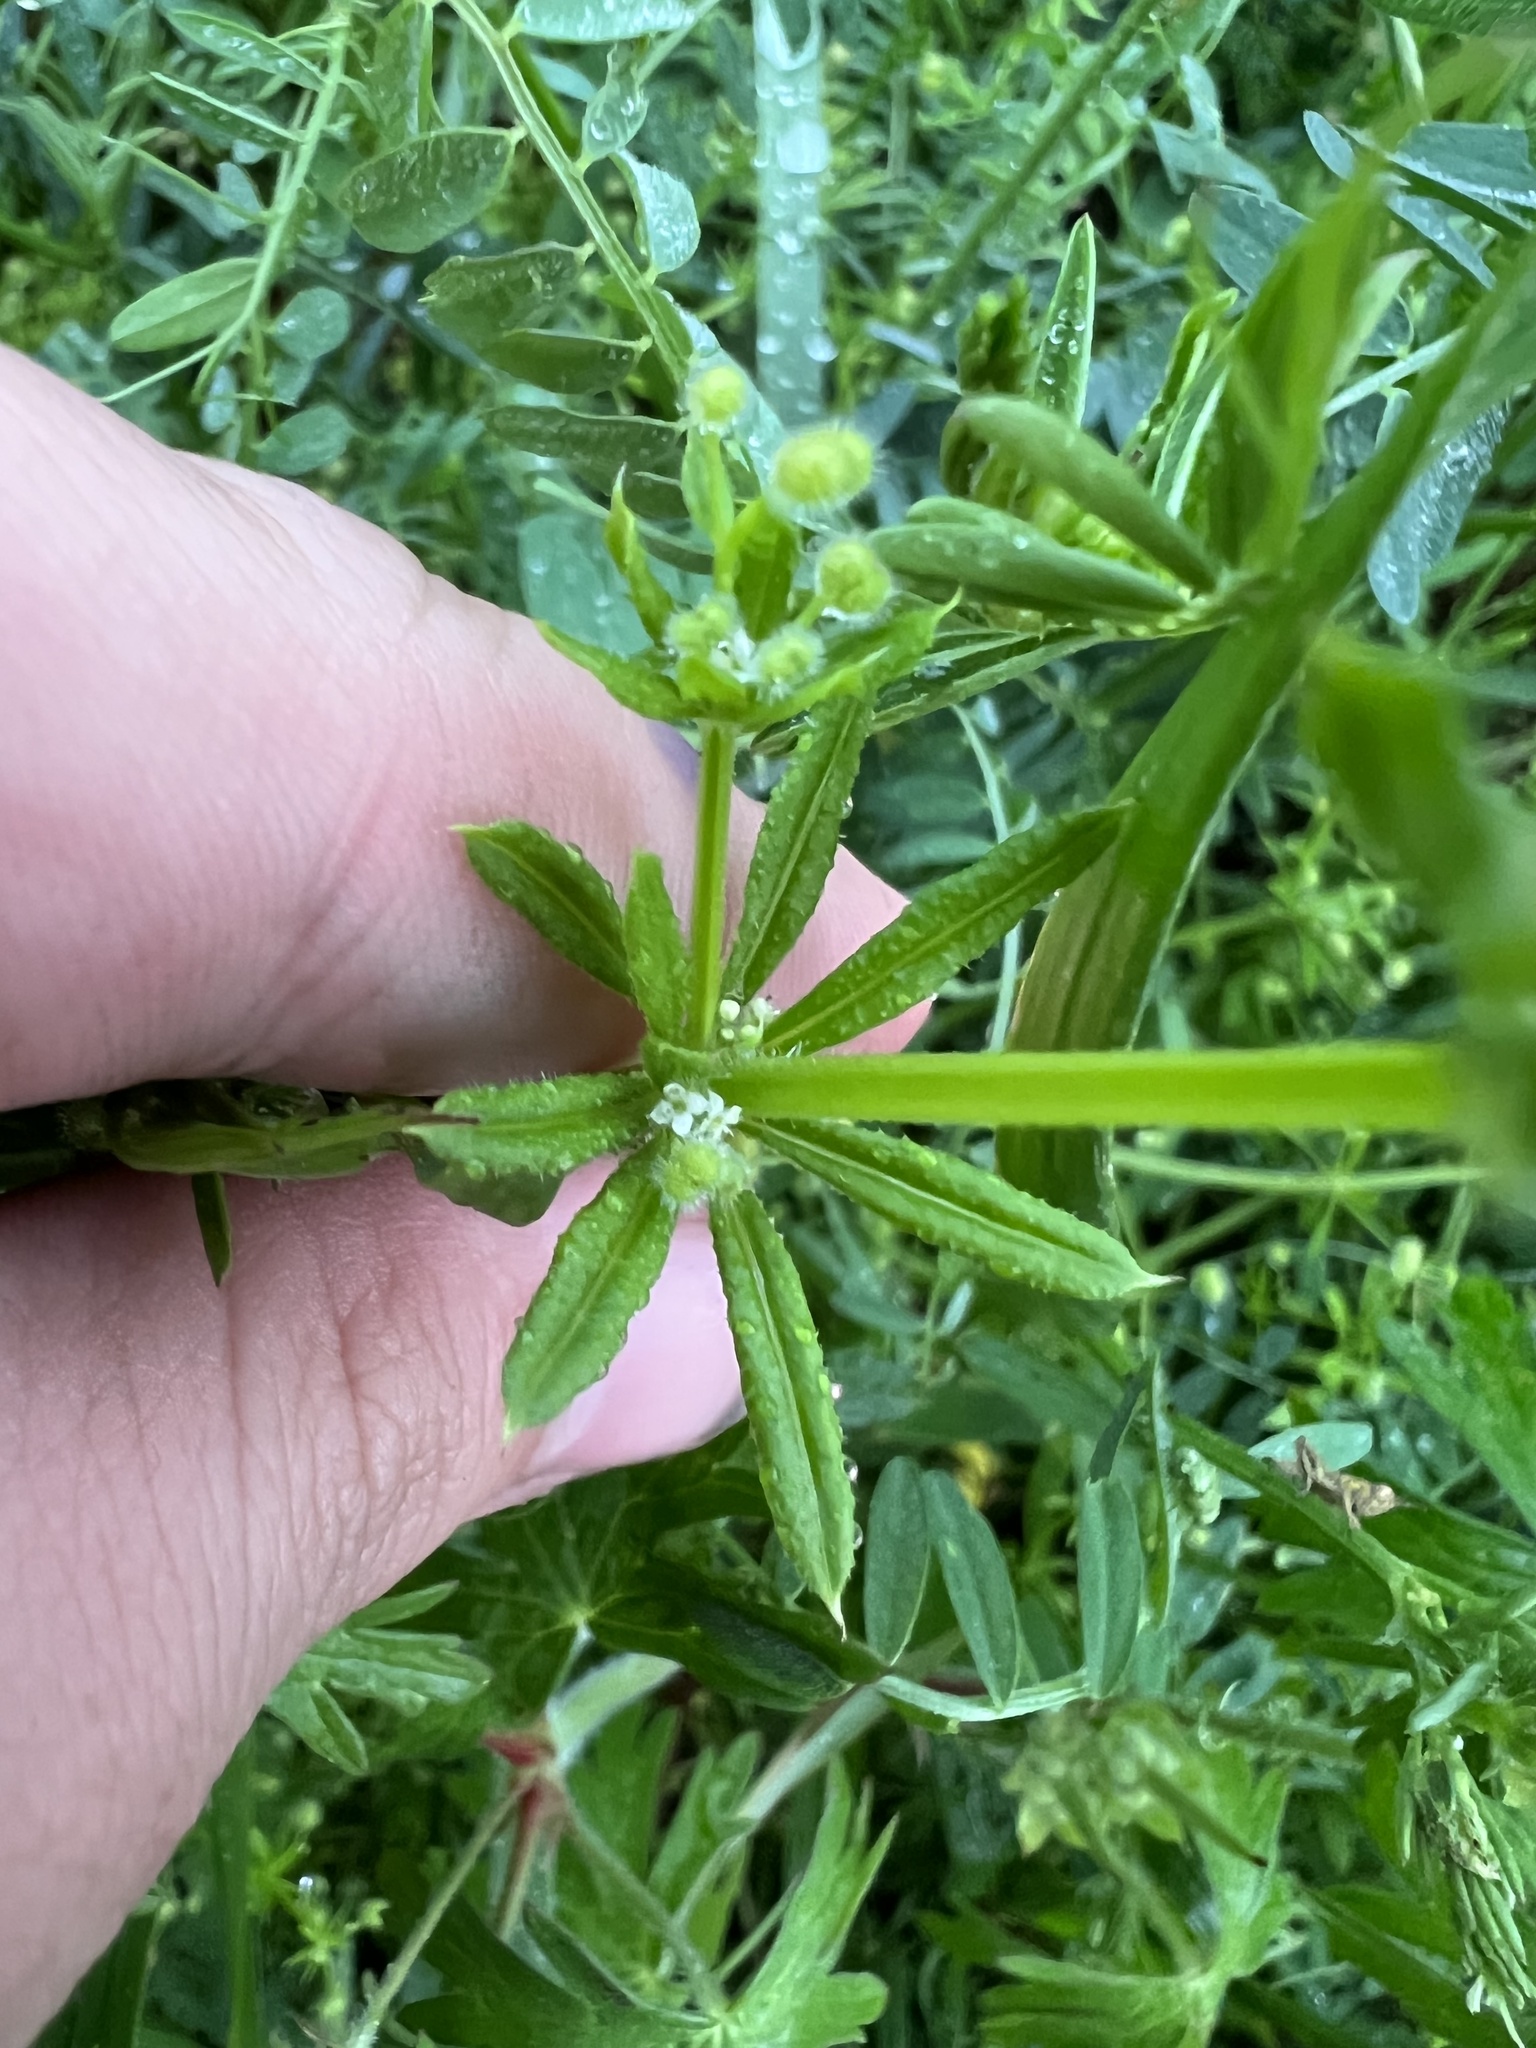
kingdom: Plantae
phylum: Tracheophyta
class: Magnoliopsida
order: Gentianales
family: Rubiaceae
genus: Galium
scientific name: Galium aparine
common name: Cleavers
